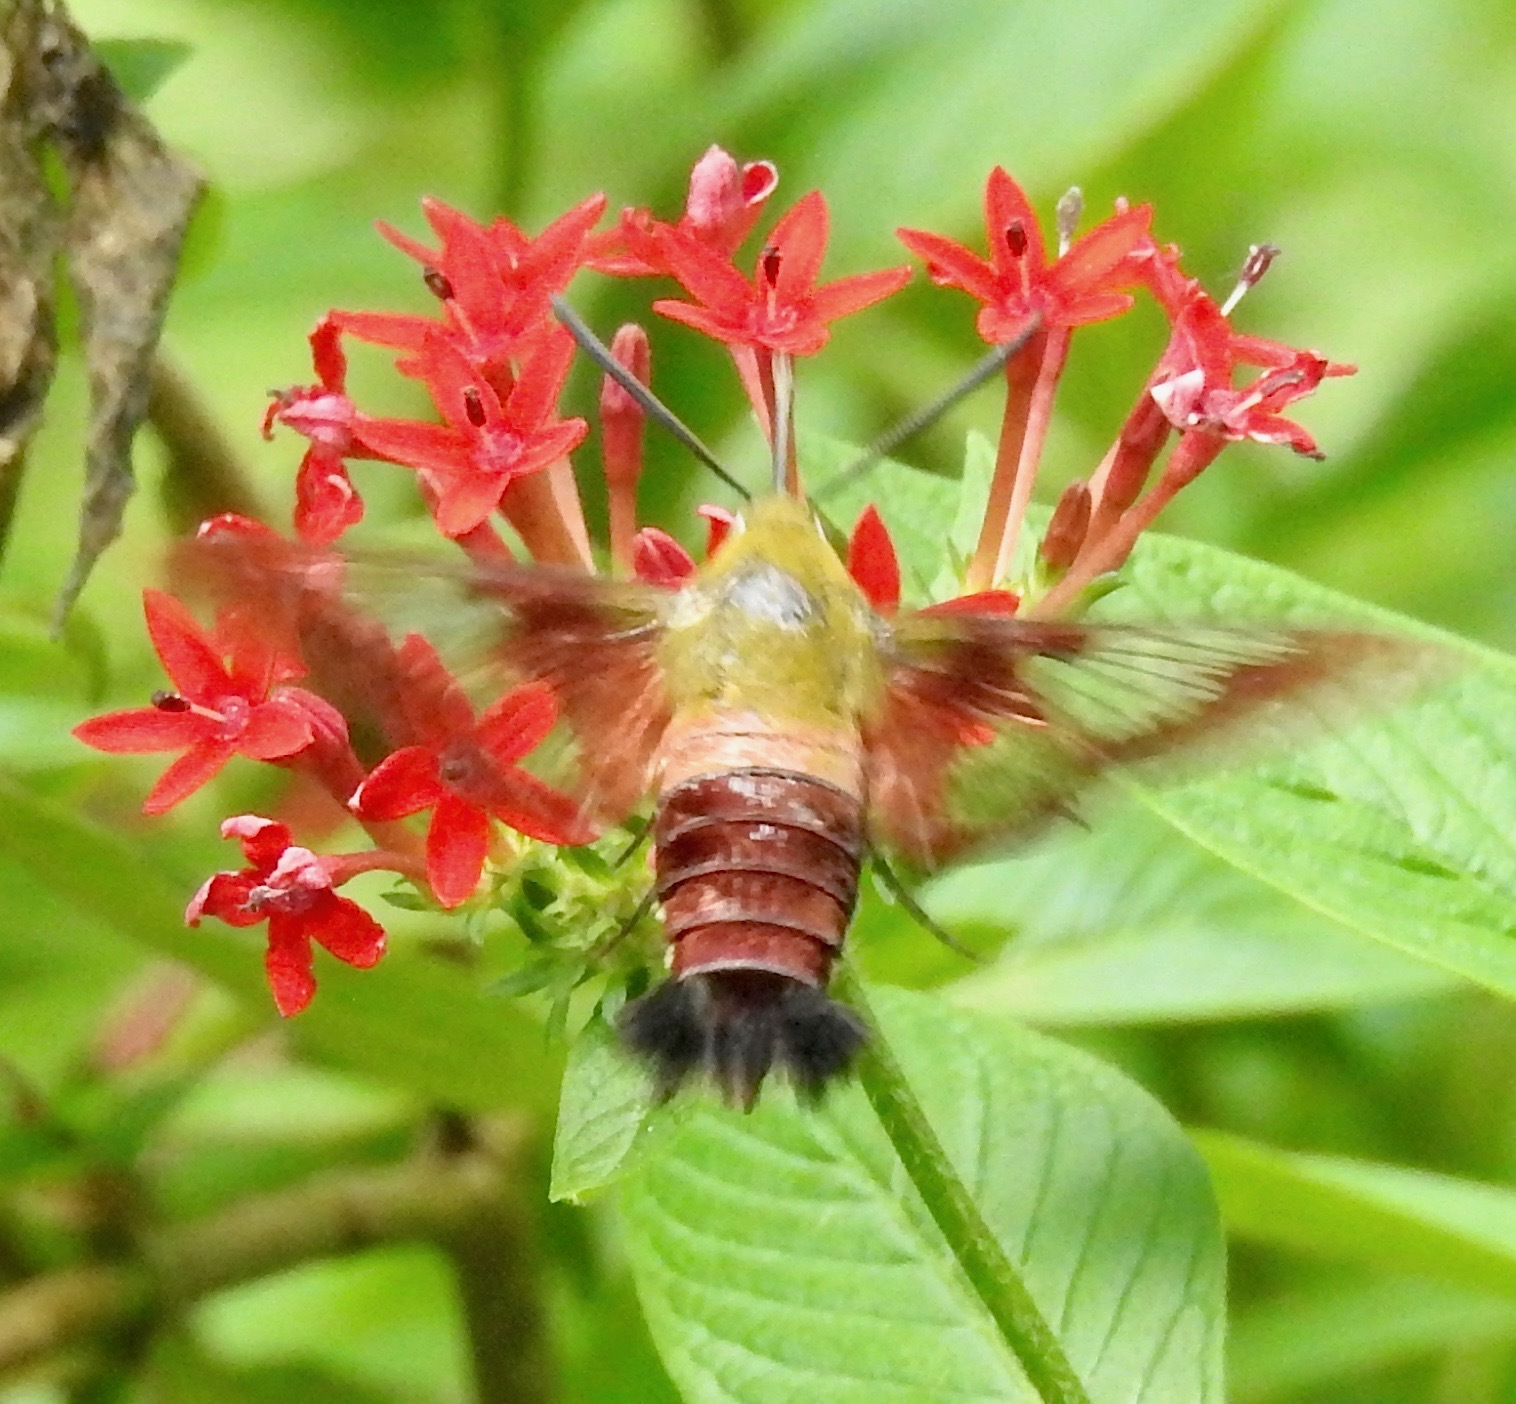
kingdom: Animalia
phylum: Arthropoda
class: Insecta
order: Lepidoptera
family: Sphingidae
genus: Hemaris
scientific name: Hemaris thysbe
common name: Common clear-wing
